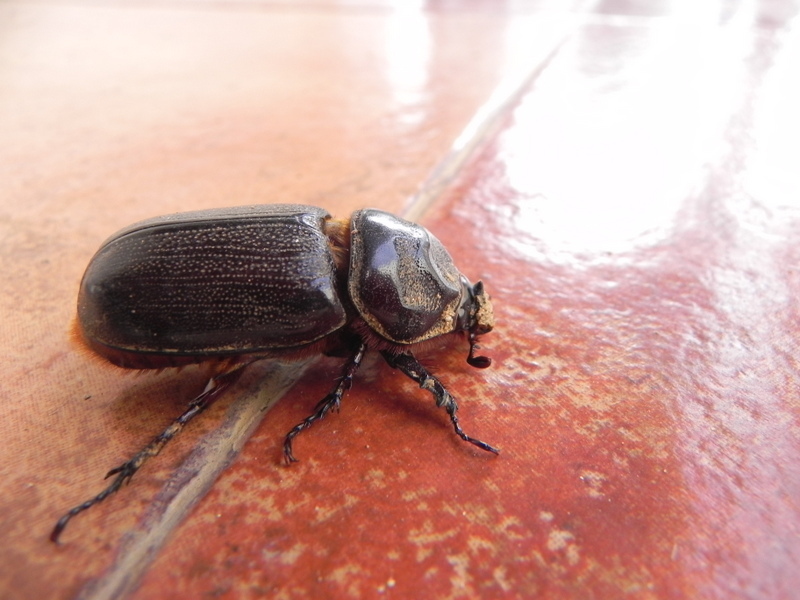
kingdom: Animalia
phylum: Arthropoda
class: Insecta
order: Coleoptera
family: Scarabaeidae
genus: Oryctes
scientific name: Oryctes rhinoceros
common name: Coconut rhinoceros beetle
